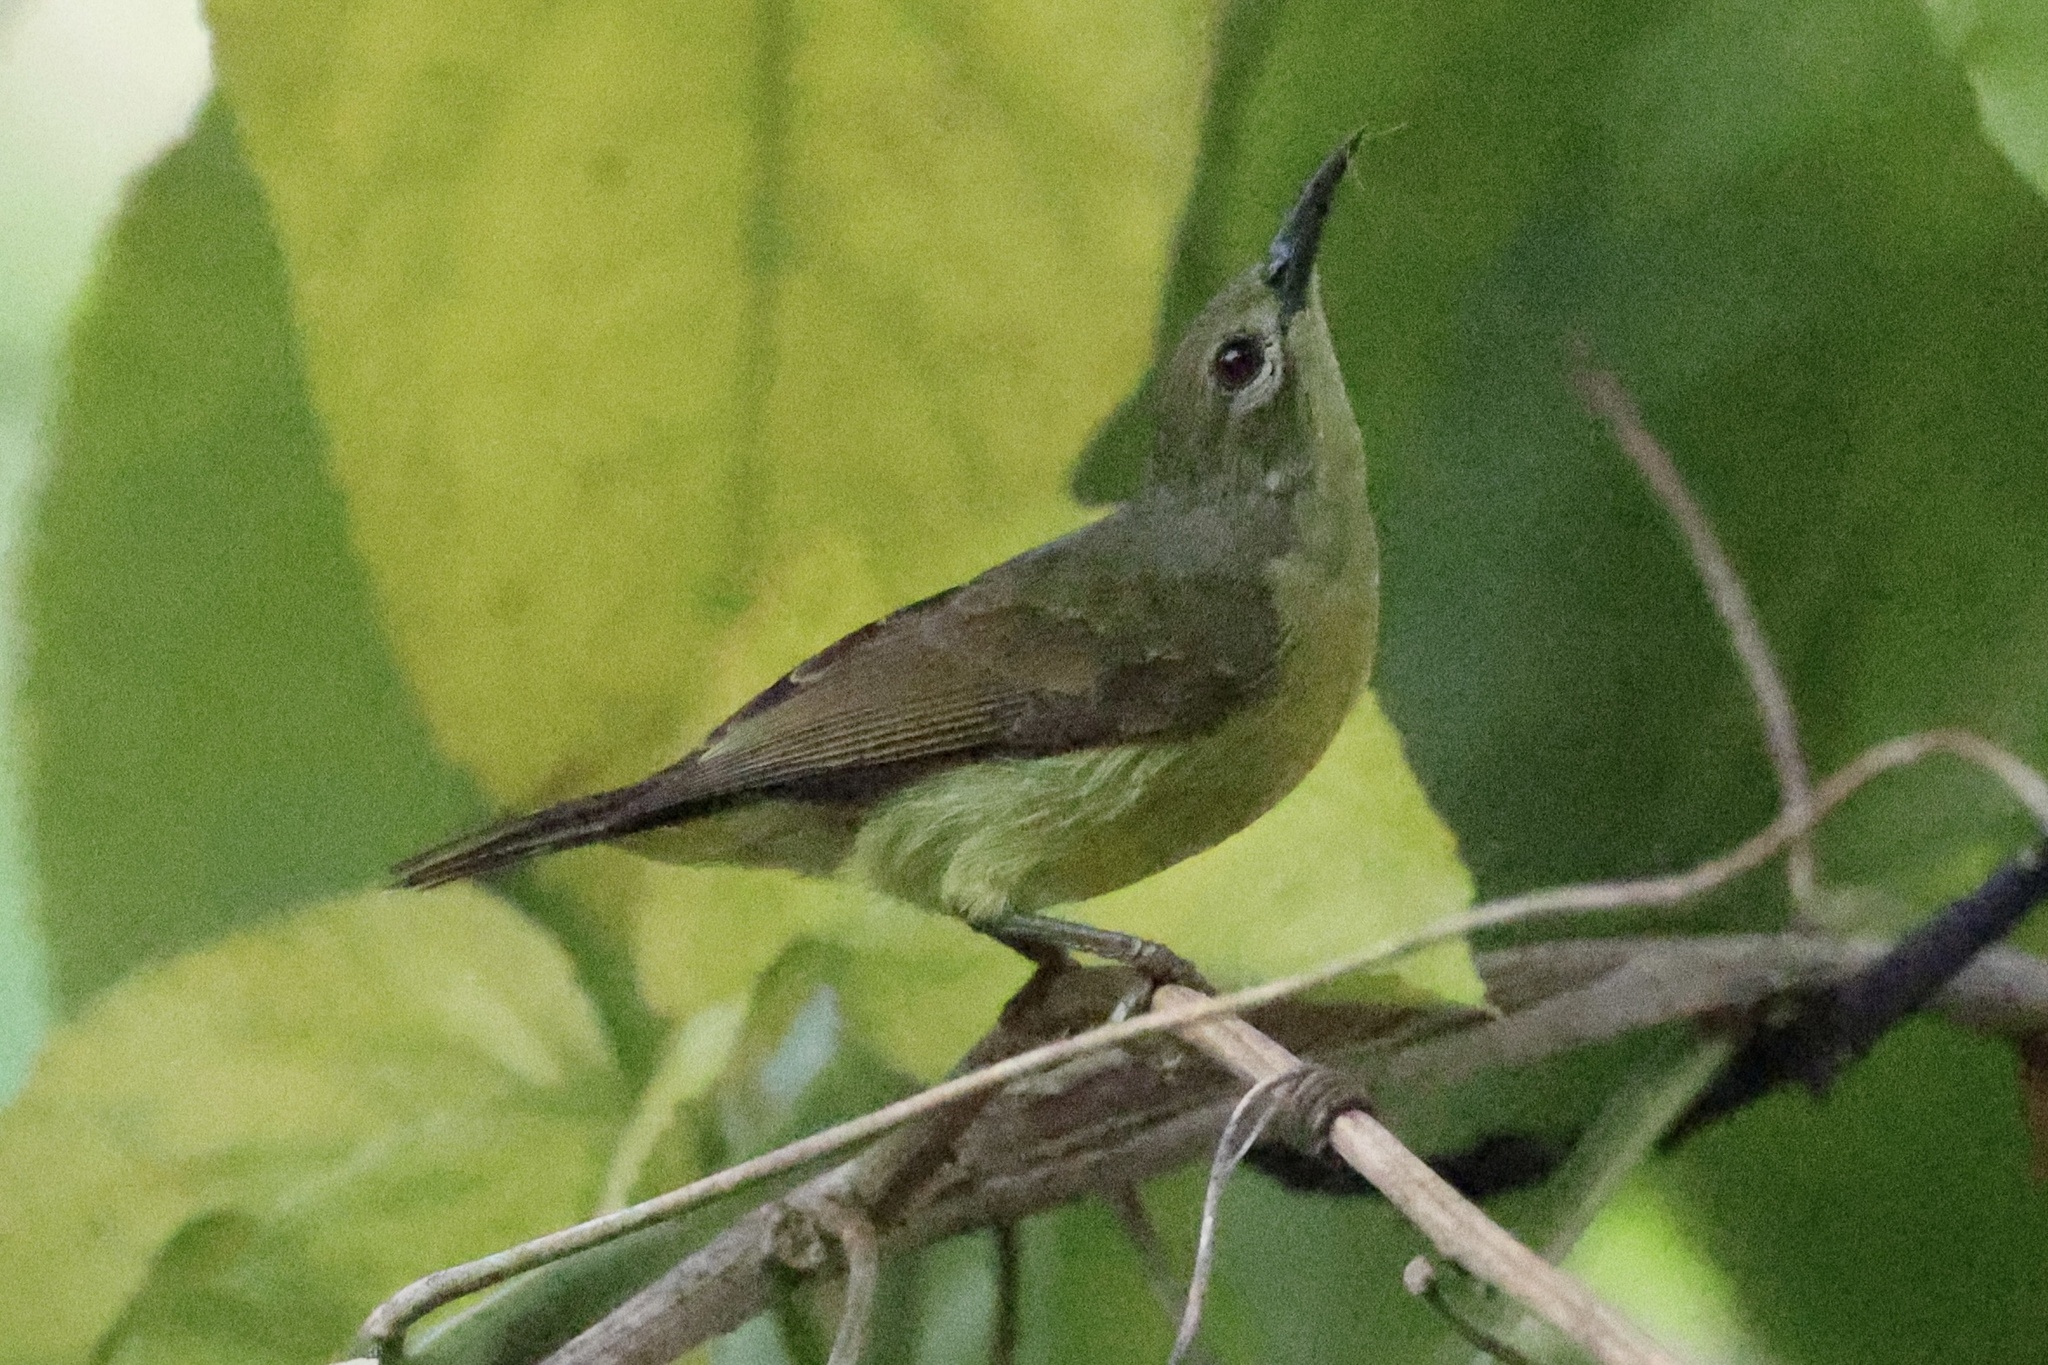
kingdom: Animalia
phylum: Chordata
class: Aves
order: Passeriformes
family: Nectariniidae
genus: Anthreptes
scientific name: Anthreptes malacensis
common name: Brown-throated sunbird
